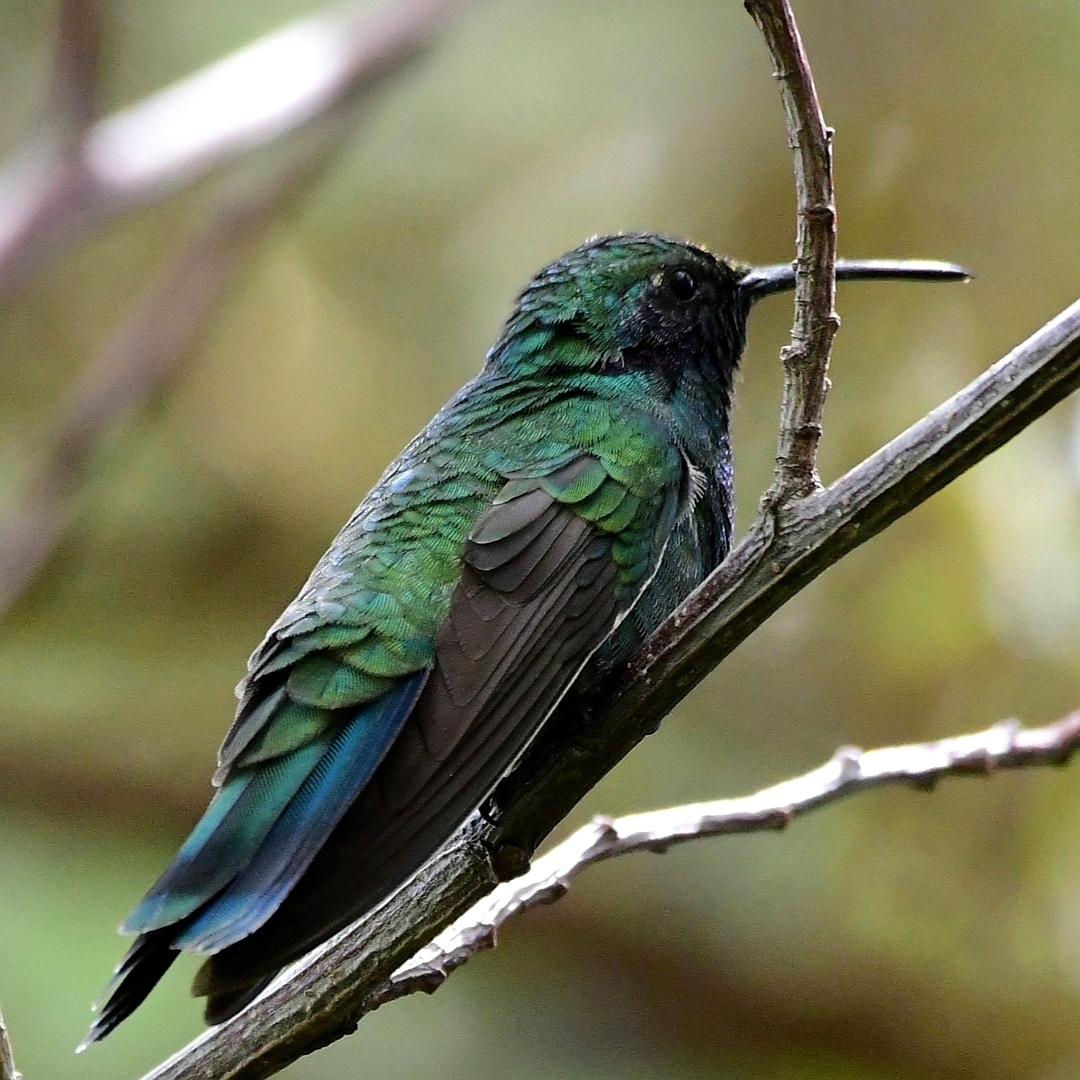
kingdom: Animalia
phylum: Chordata
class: Aves
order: Apodiformes
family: Trochilidae
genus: Colibri
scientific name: Colibri coruscans
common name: Sparkling violetear
